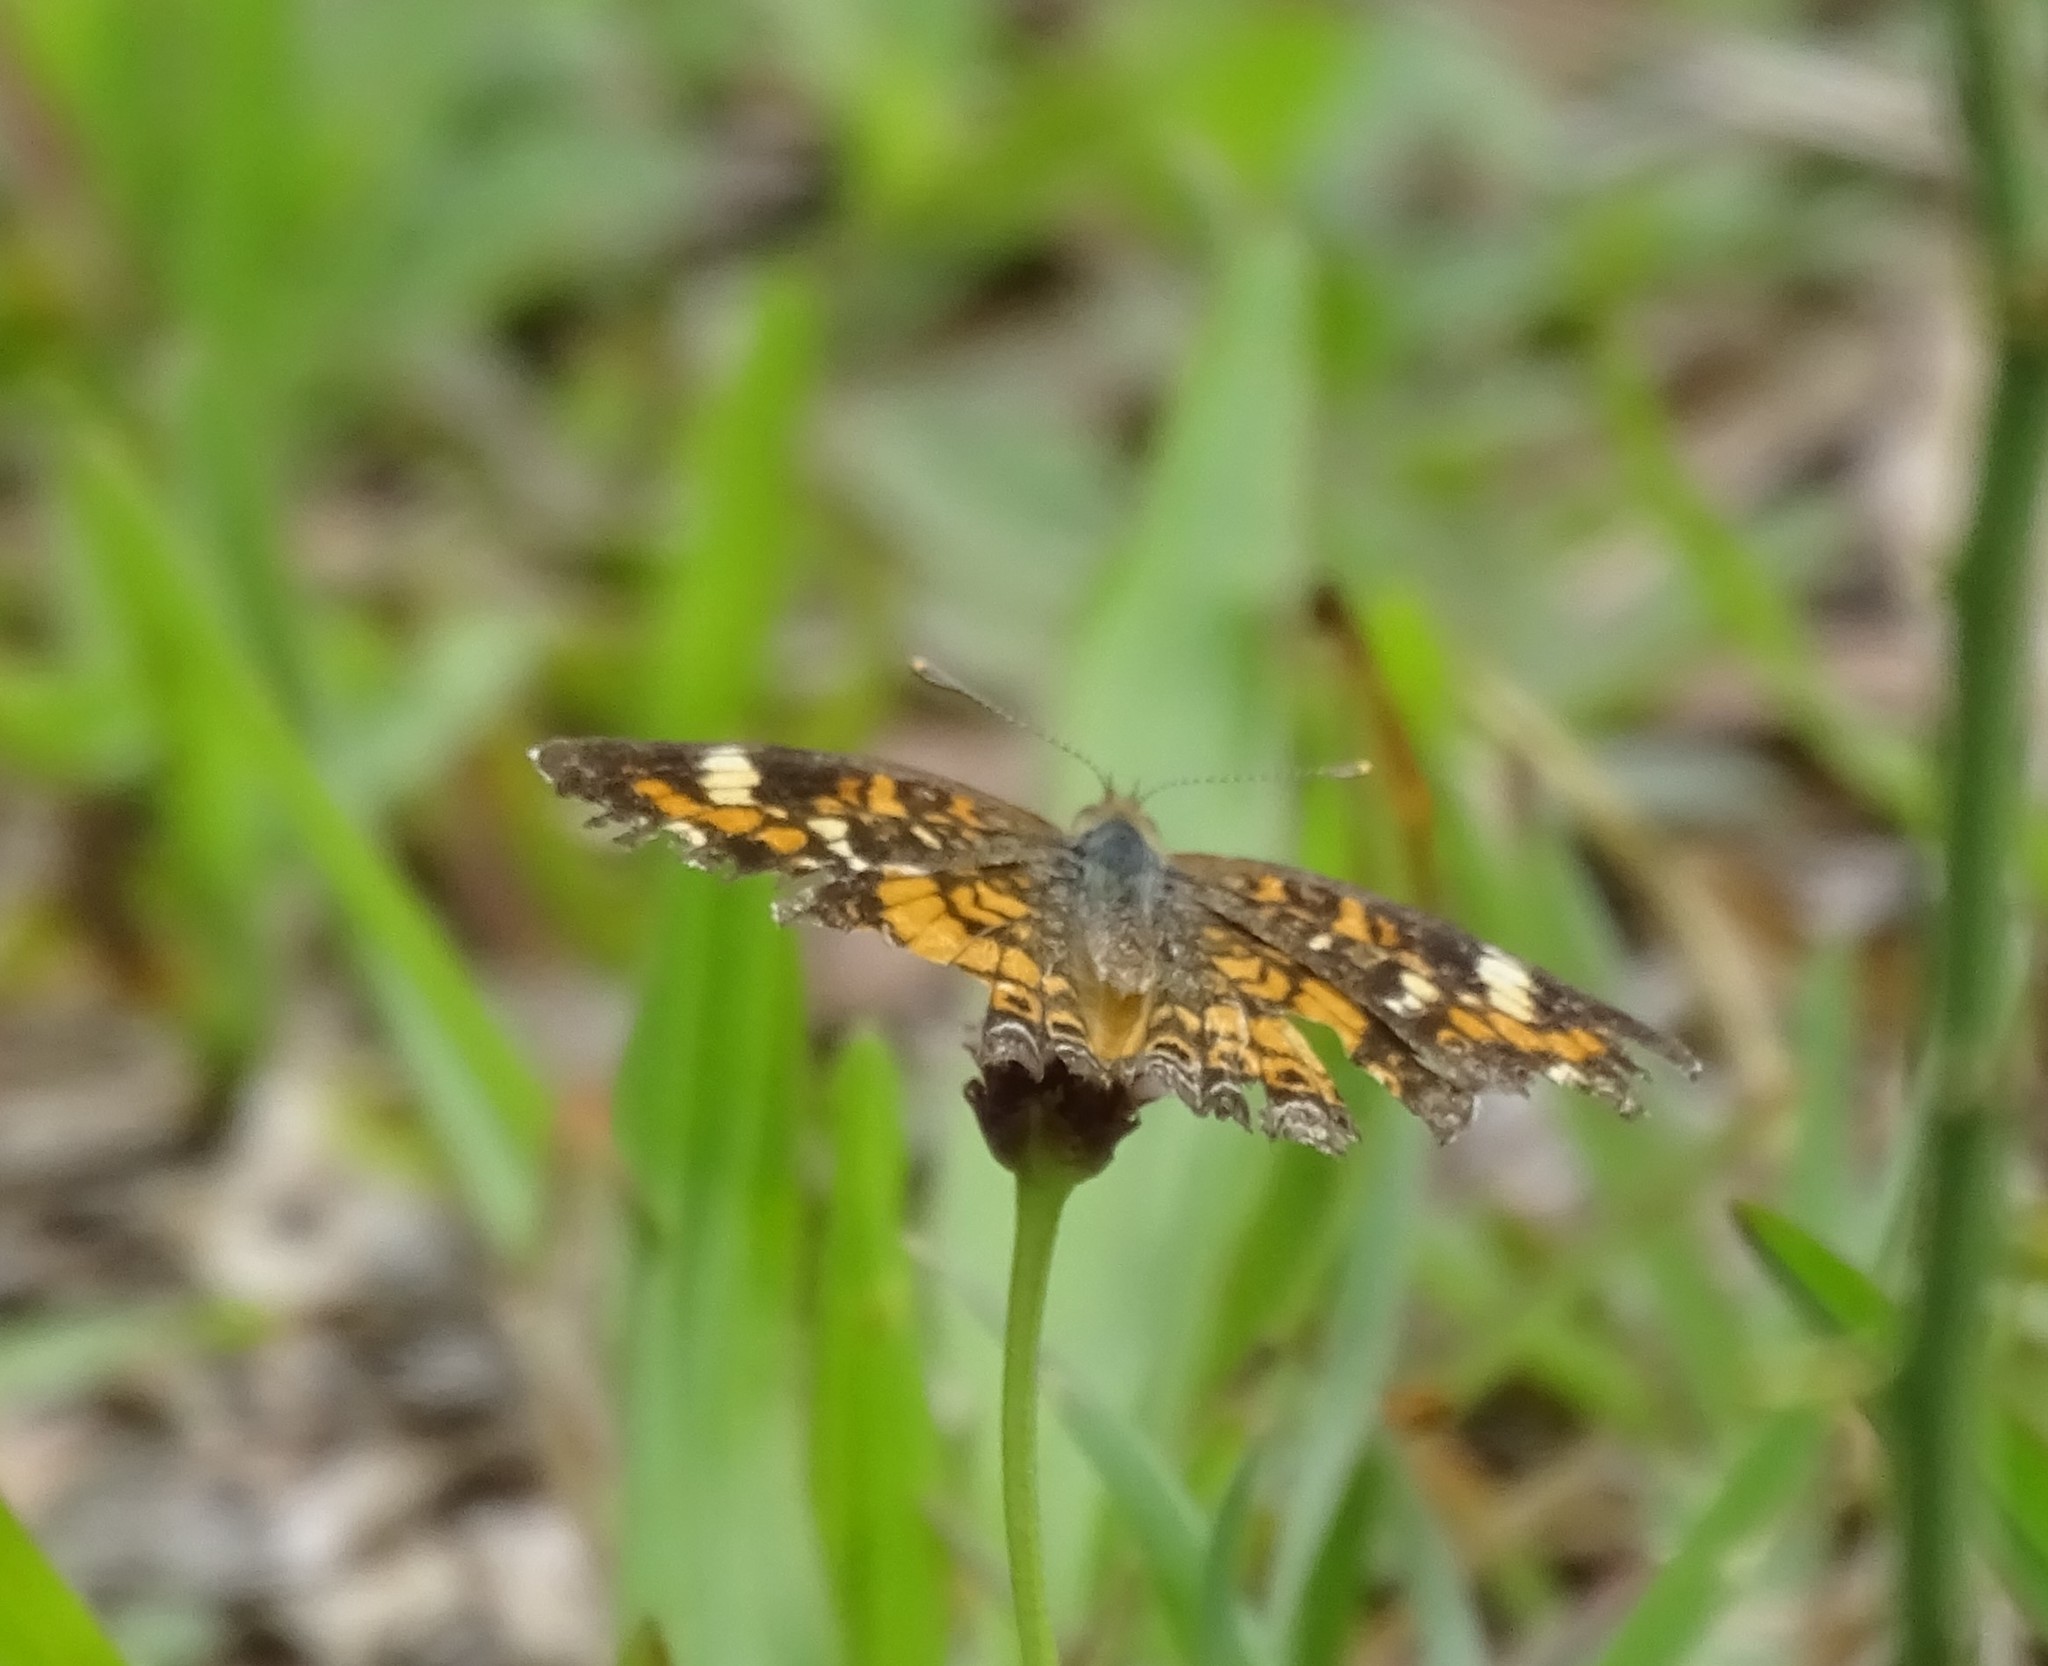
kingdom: Animalia
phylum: Arthropoda
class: Insecta
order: Lepidoptera
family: Nymphalidae
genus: Phyciodes
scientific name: Phyciodes phaon
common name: Phaon crescent
